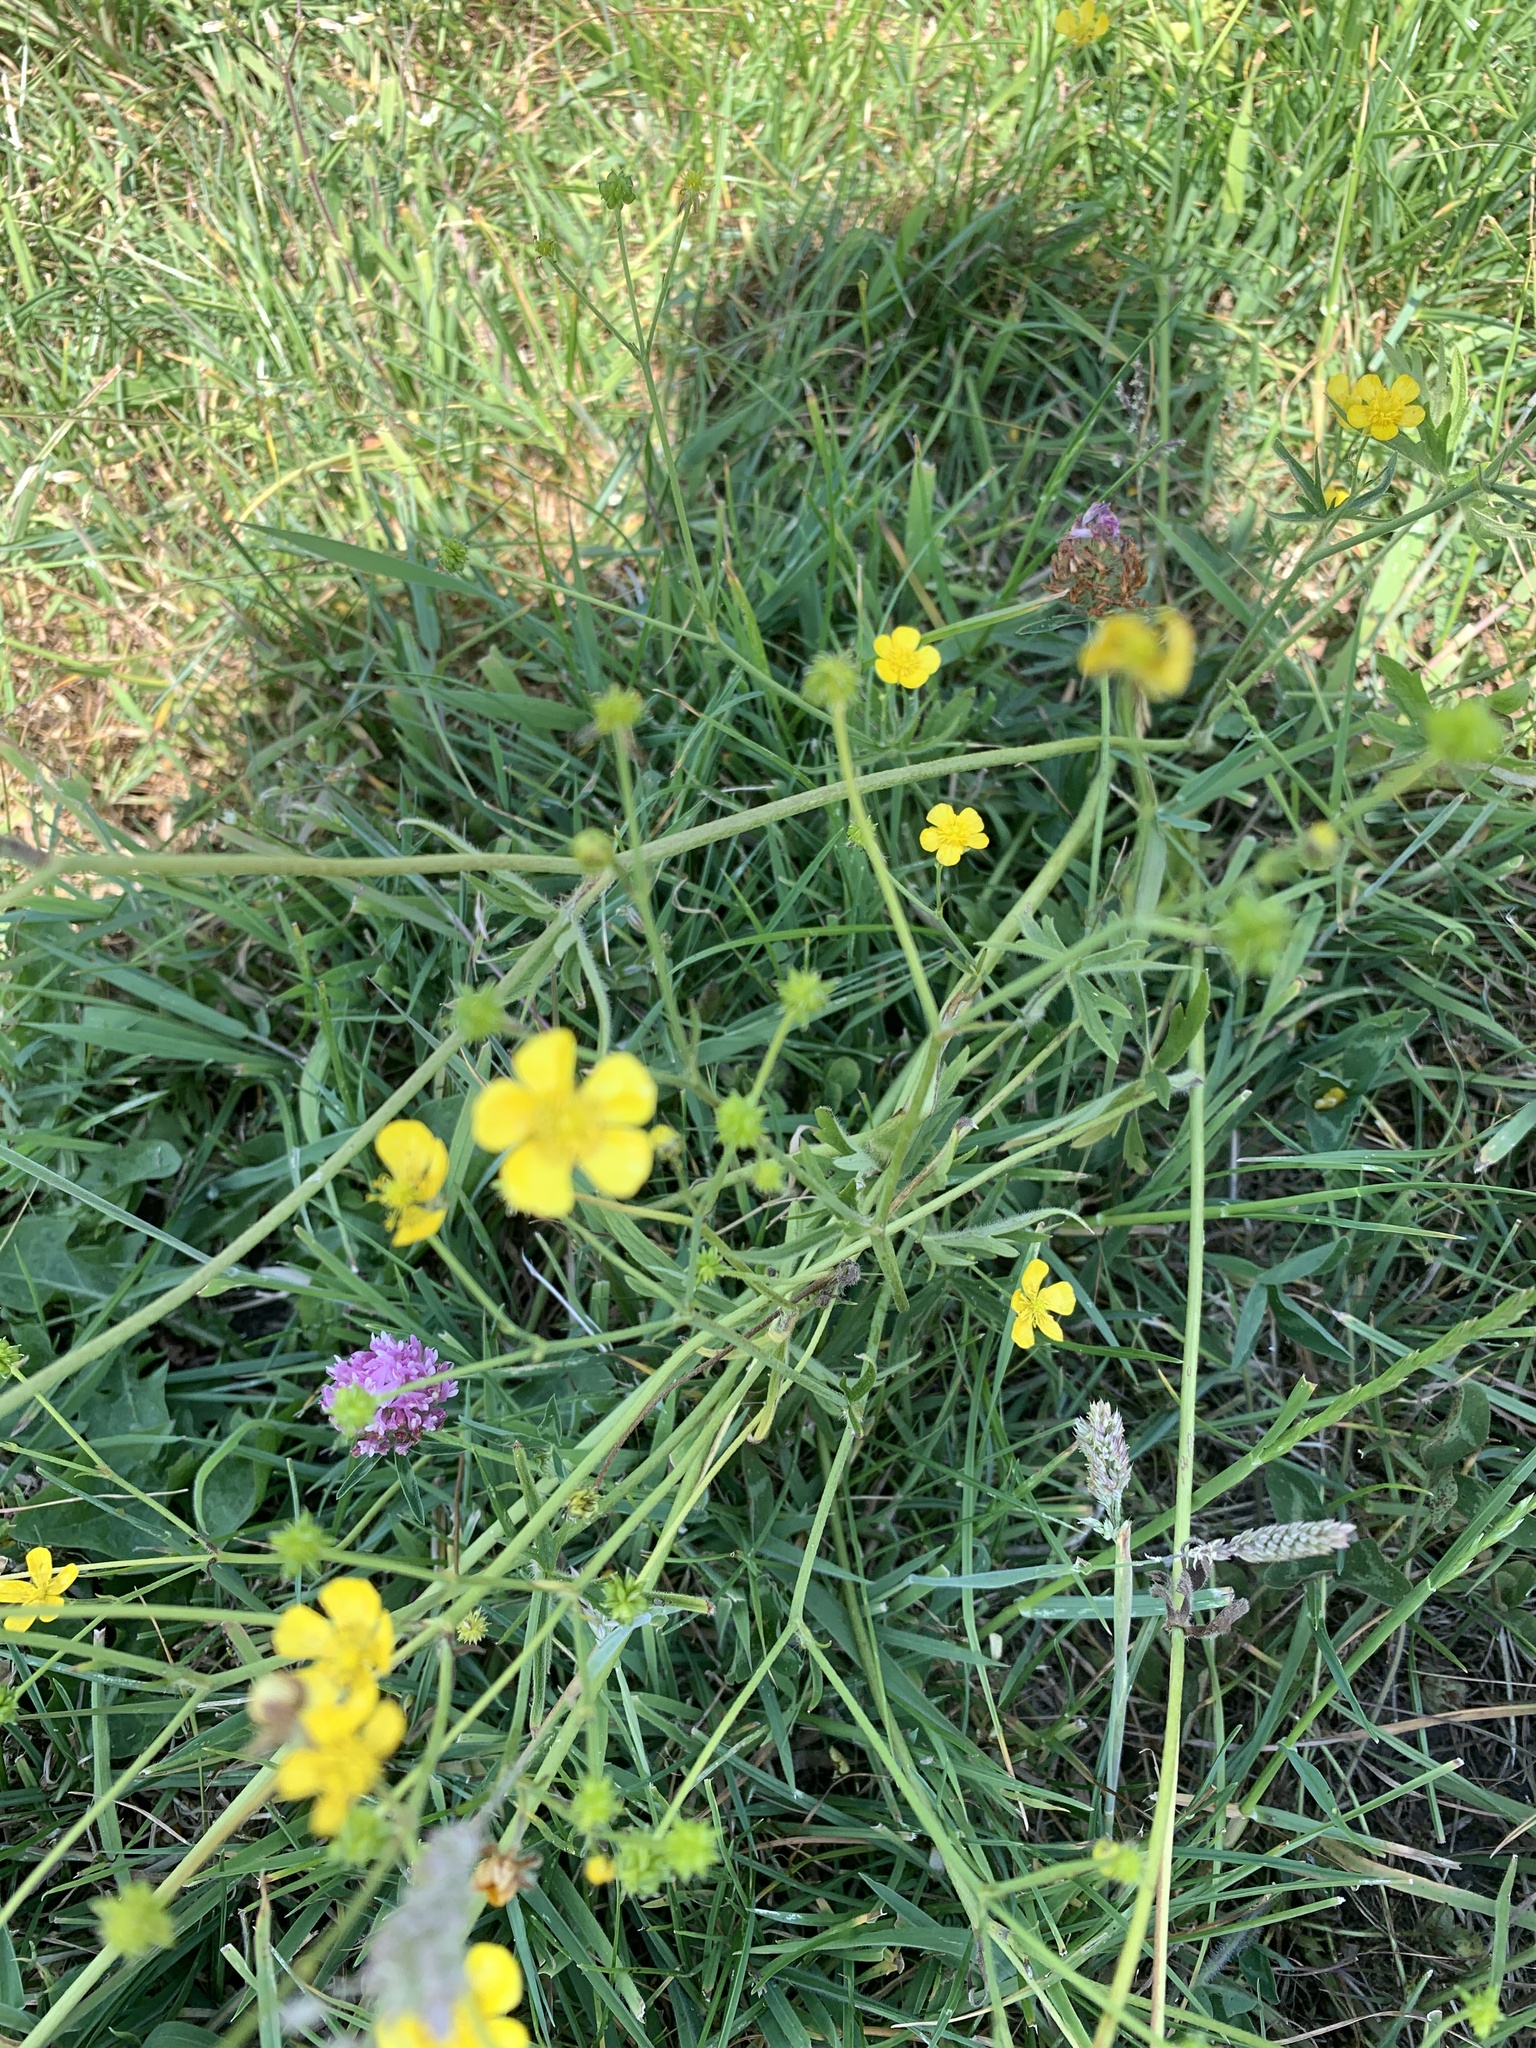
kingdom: Plantae
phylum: Tracheophyta
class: Magnoliopsida
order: Ranunculales
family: Ranunculaceae
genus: Ranunculus
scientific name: Ranunculus acris
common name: Meadow buttercup
